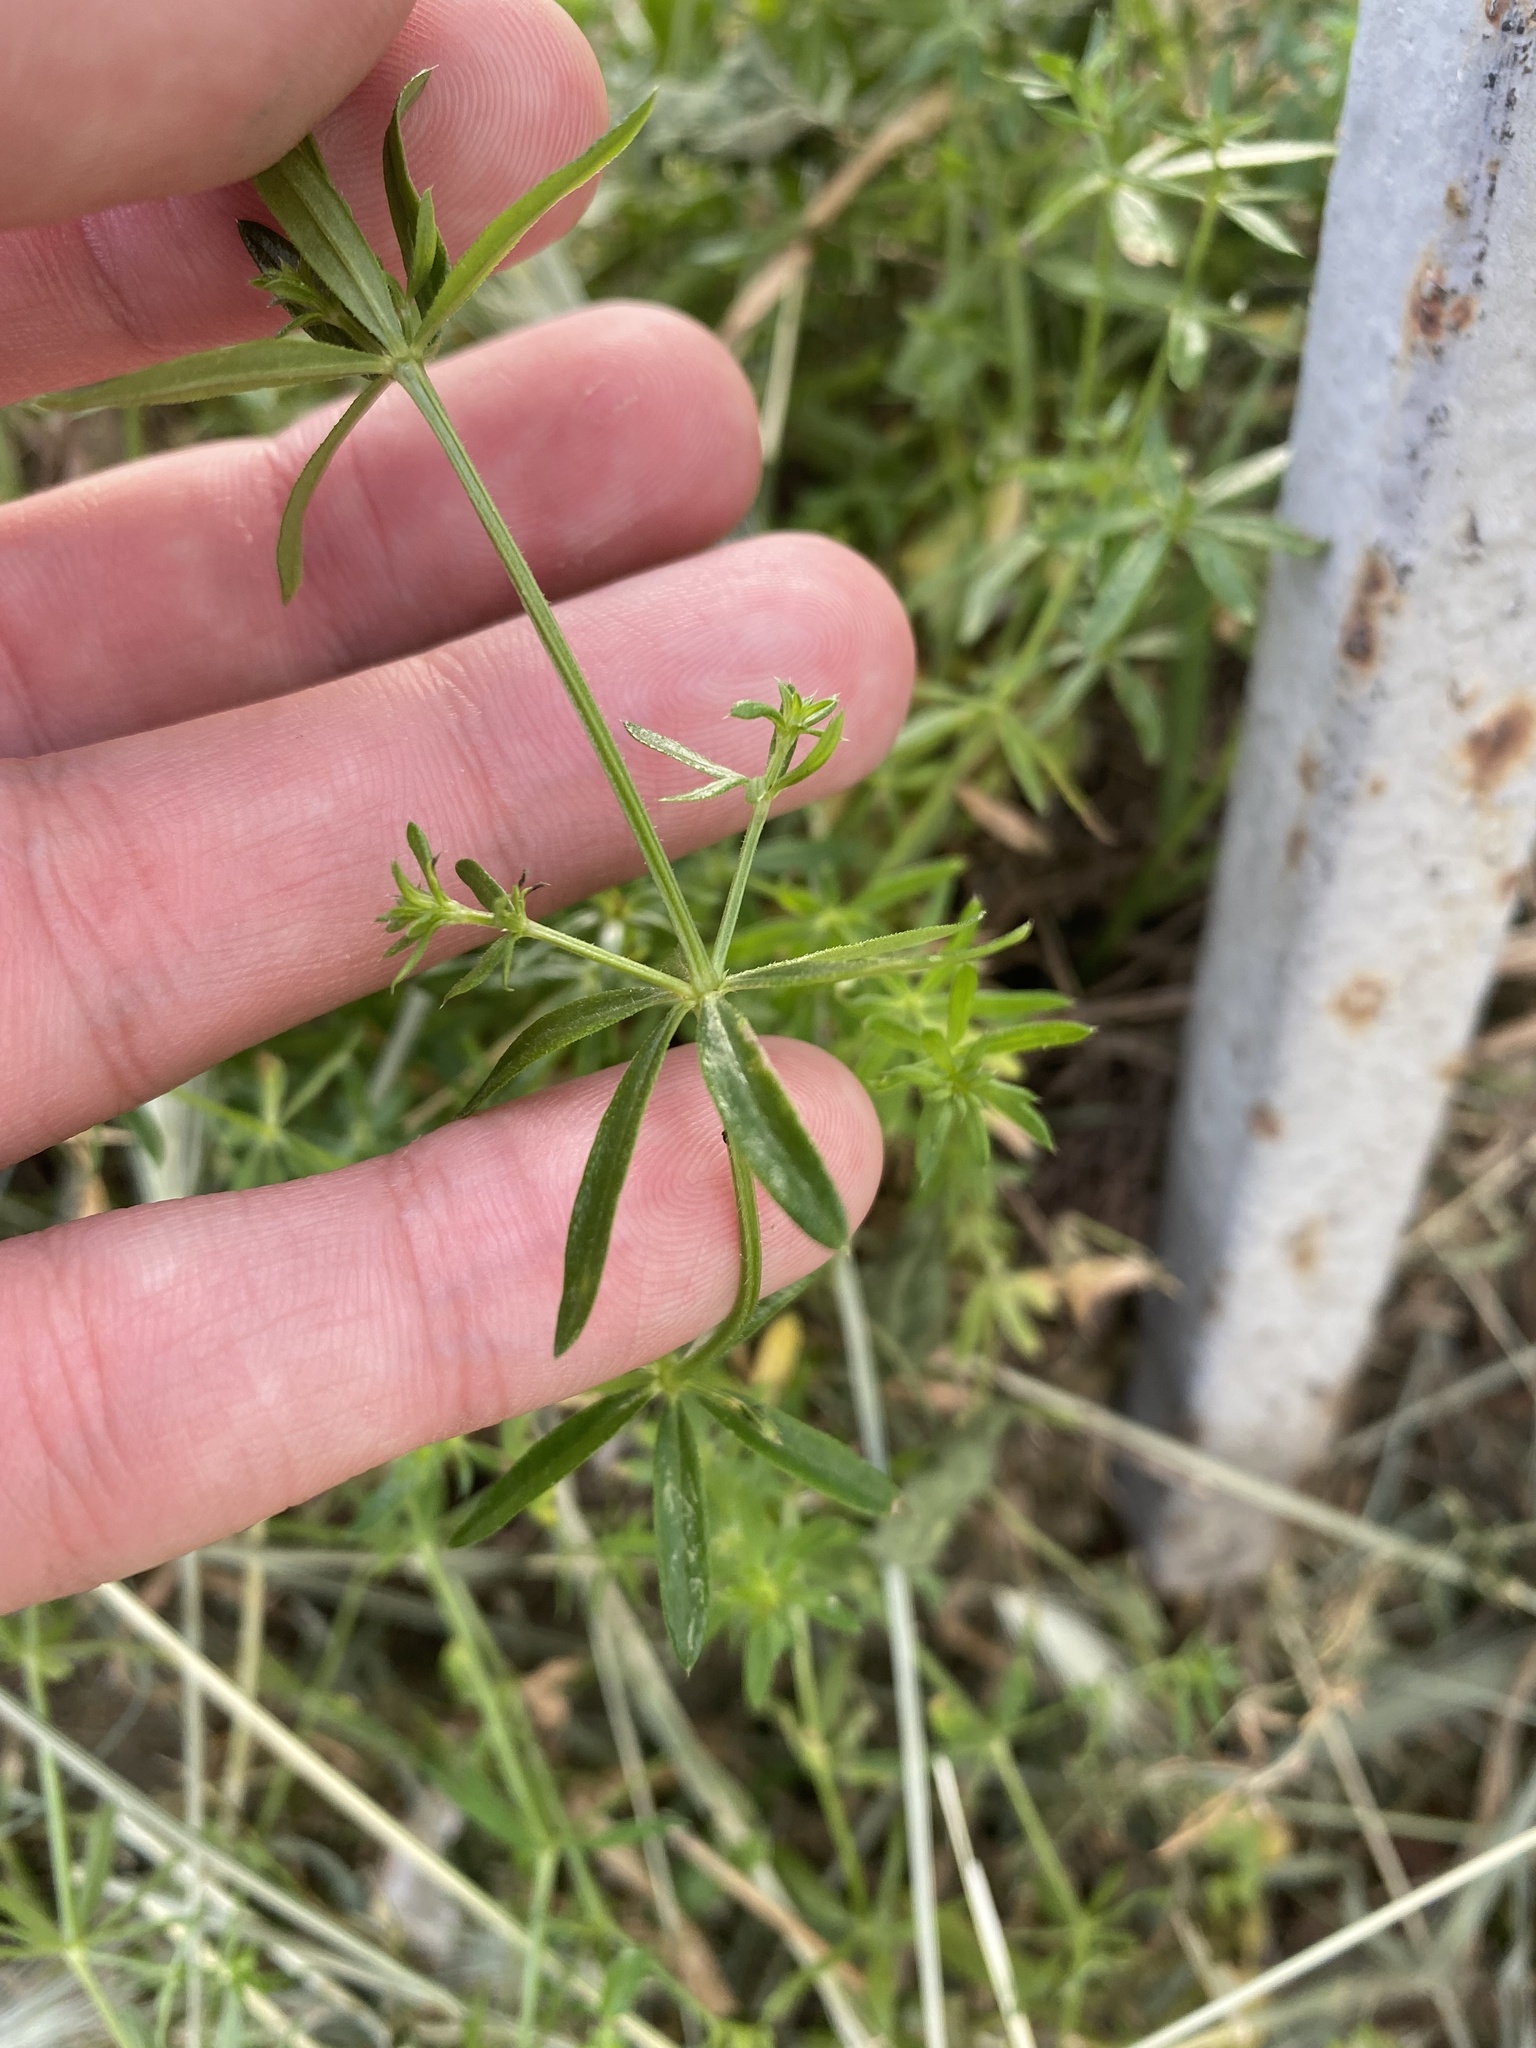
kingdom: Plantae
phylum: Tracheophyta
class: Magnoliopsida
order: Gentianales
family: Rubiaceae
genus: Galium
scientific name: Galium humifusum
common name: Spreading bedstraw
